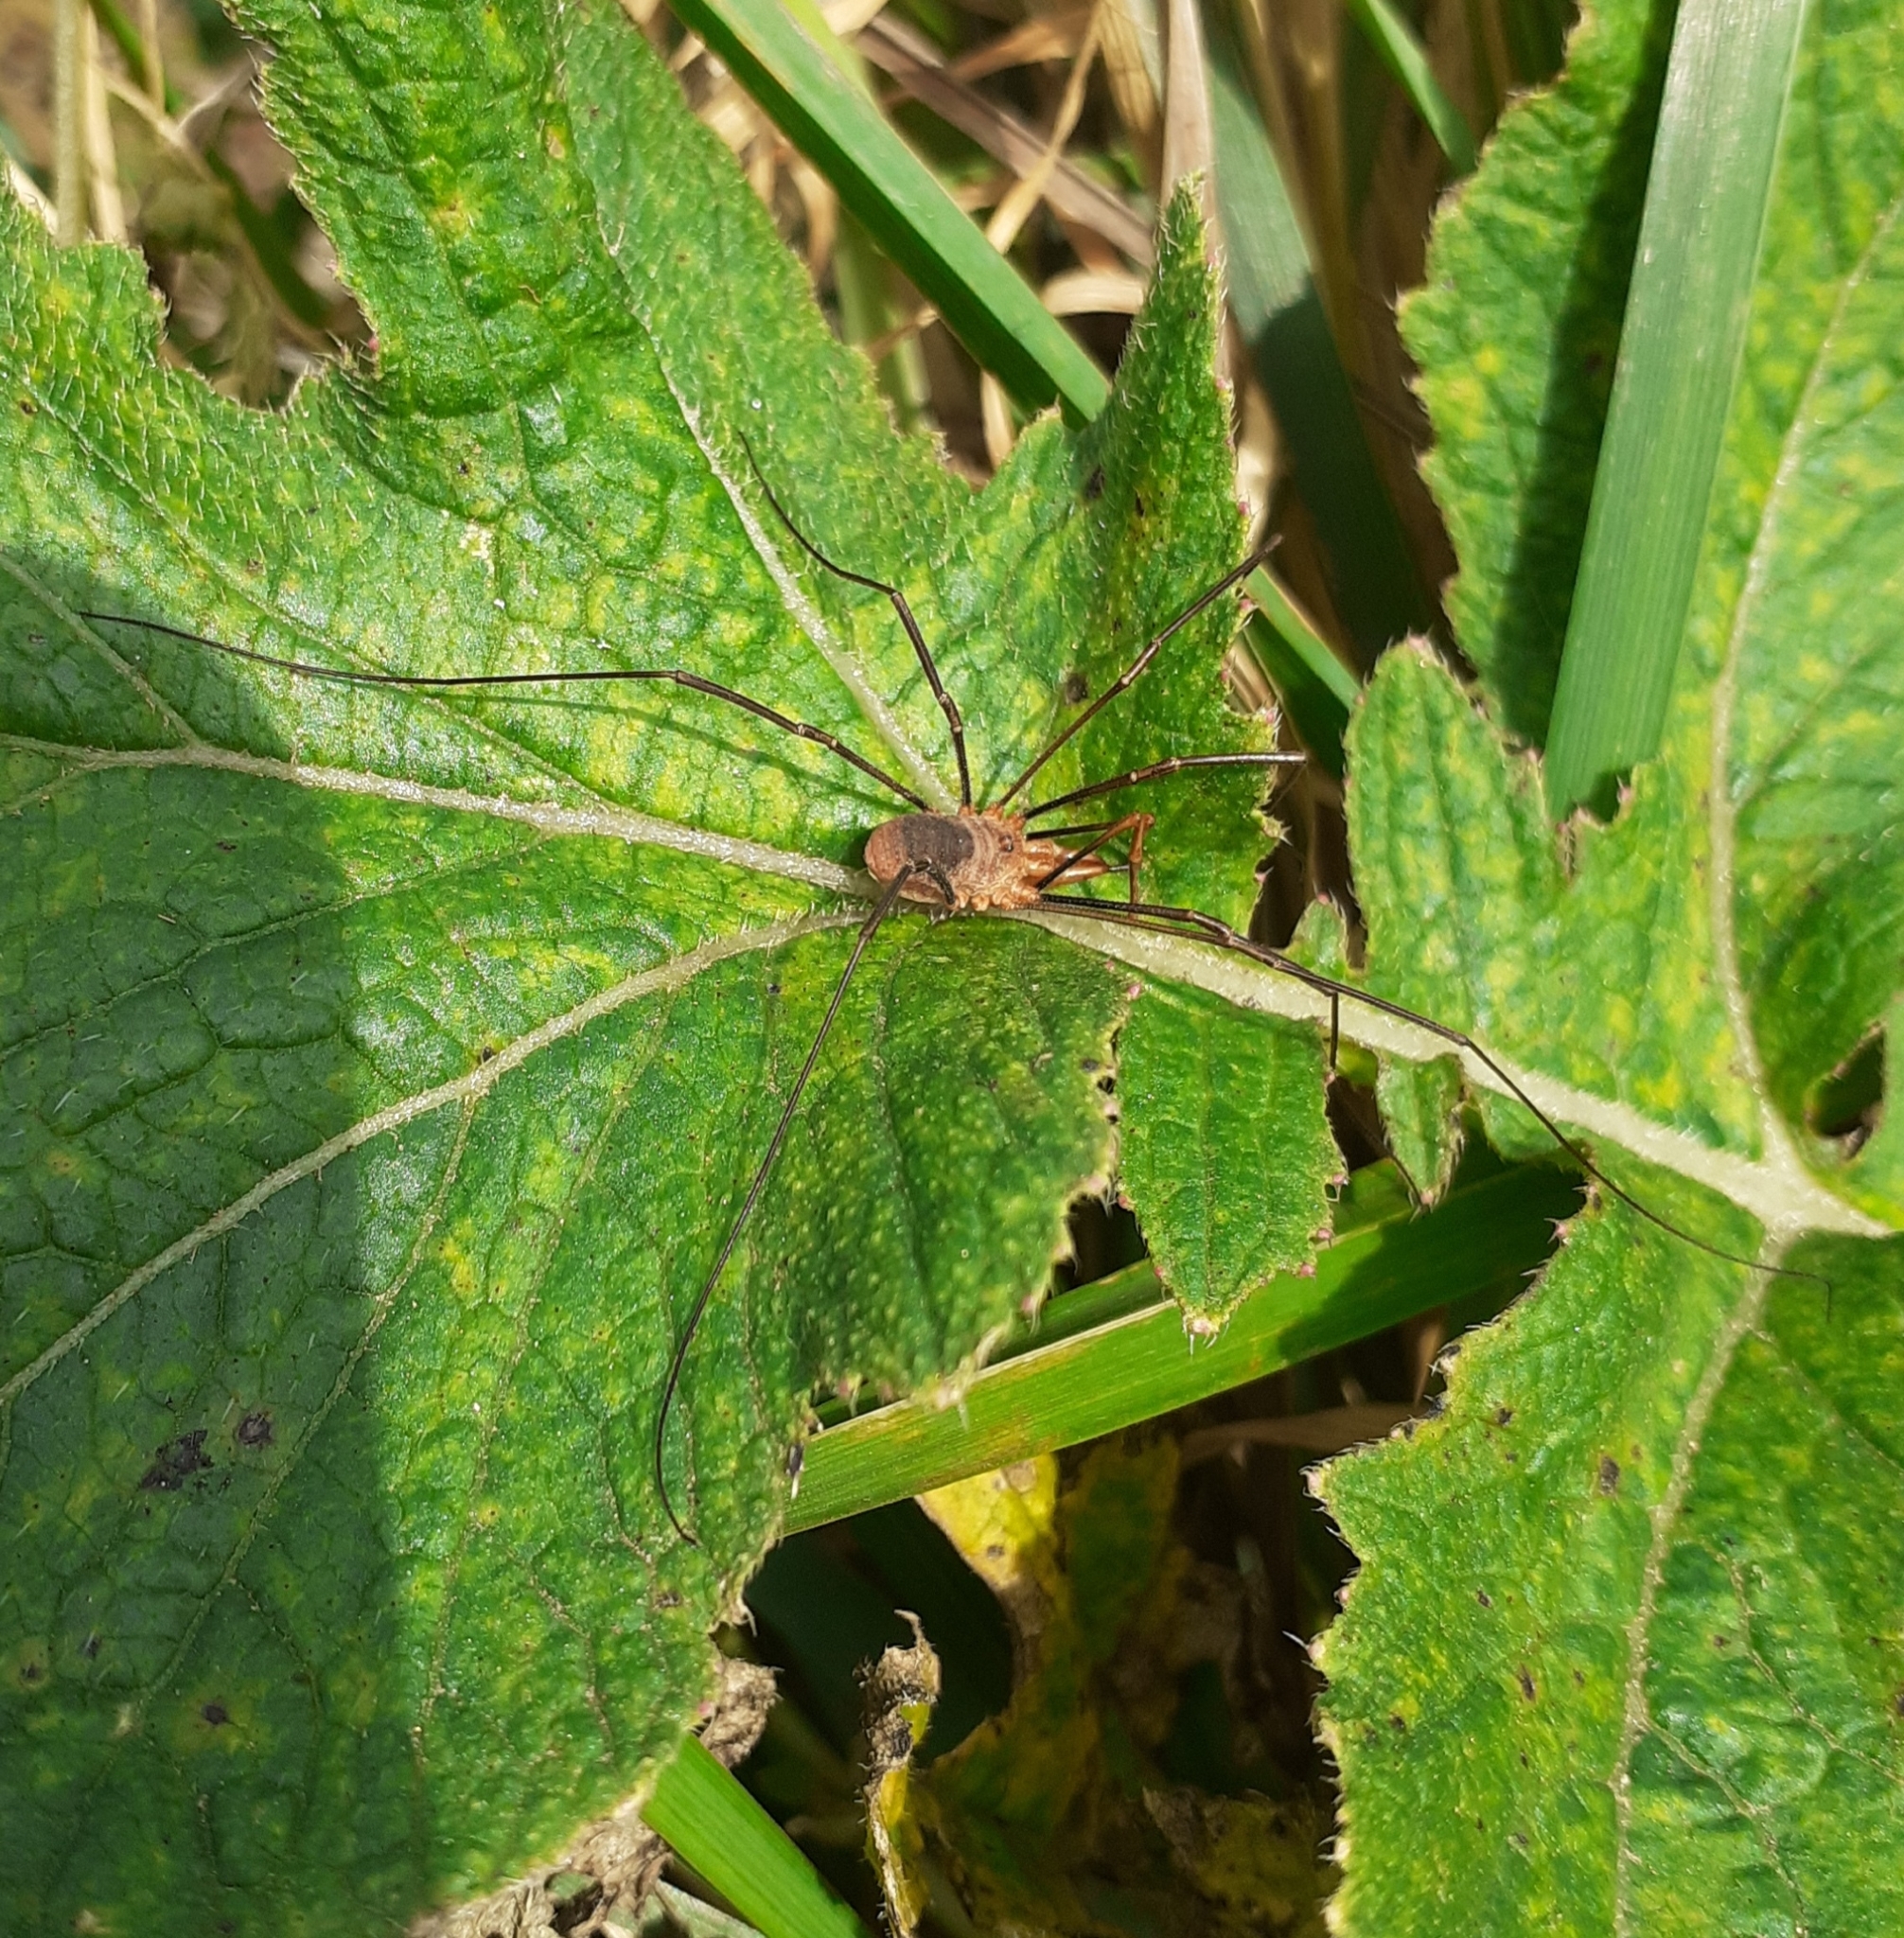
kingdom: Animalia
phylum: Arthropoda
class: Arachnida
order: Opiliones
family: Phalangiidae
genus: Phalangium
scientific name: Phalangium opilio
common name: Daddy longleg
